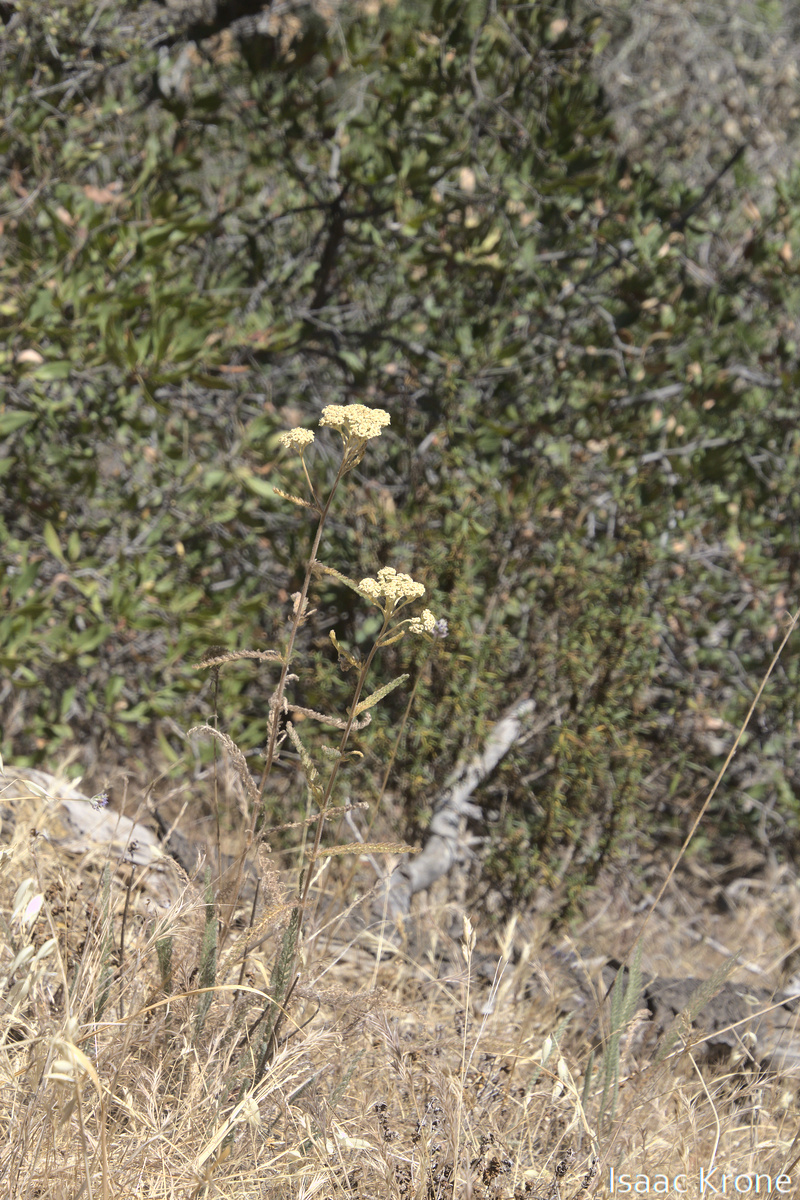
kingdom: Plantae
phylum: Tracheophyta
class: Magnoliopsida
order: Asterales
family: Asteraceae
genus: Achillea
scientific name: Achillea millefolium
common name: Yarrow
